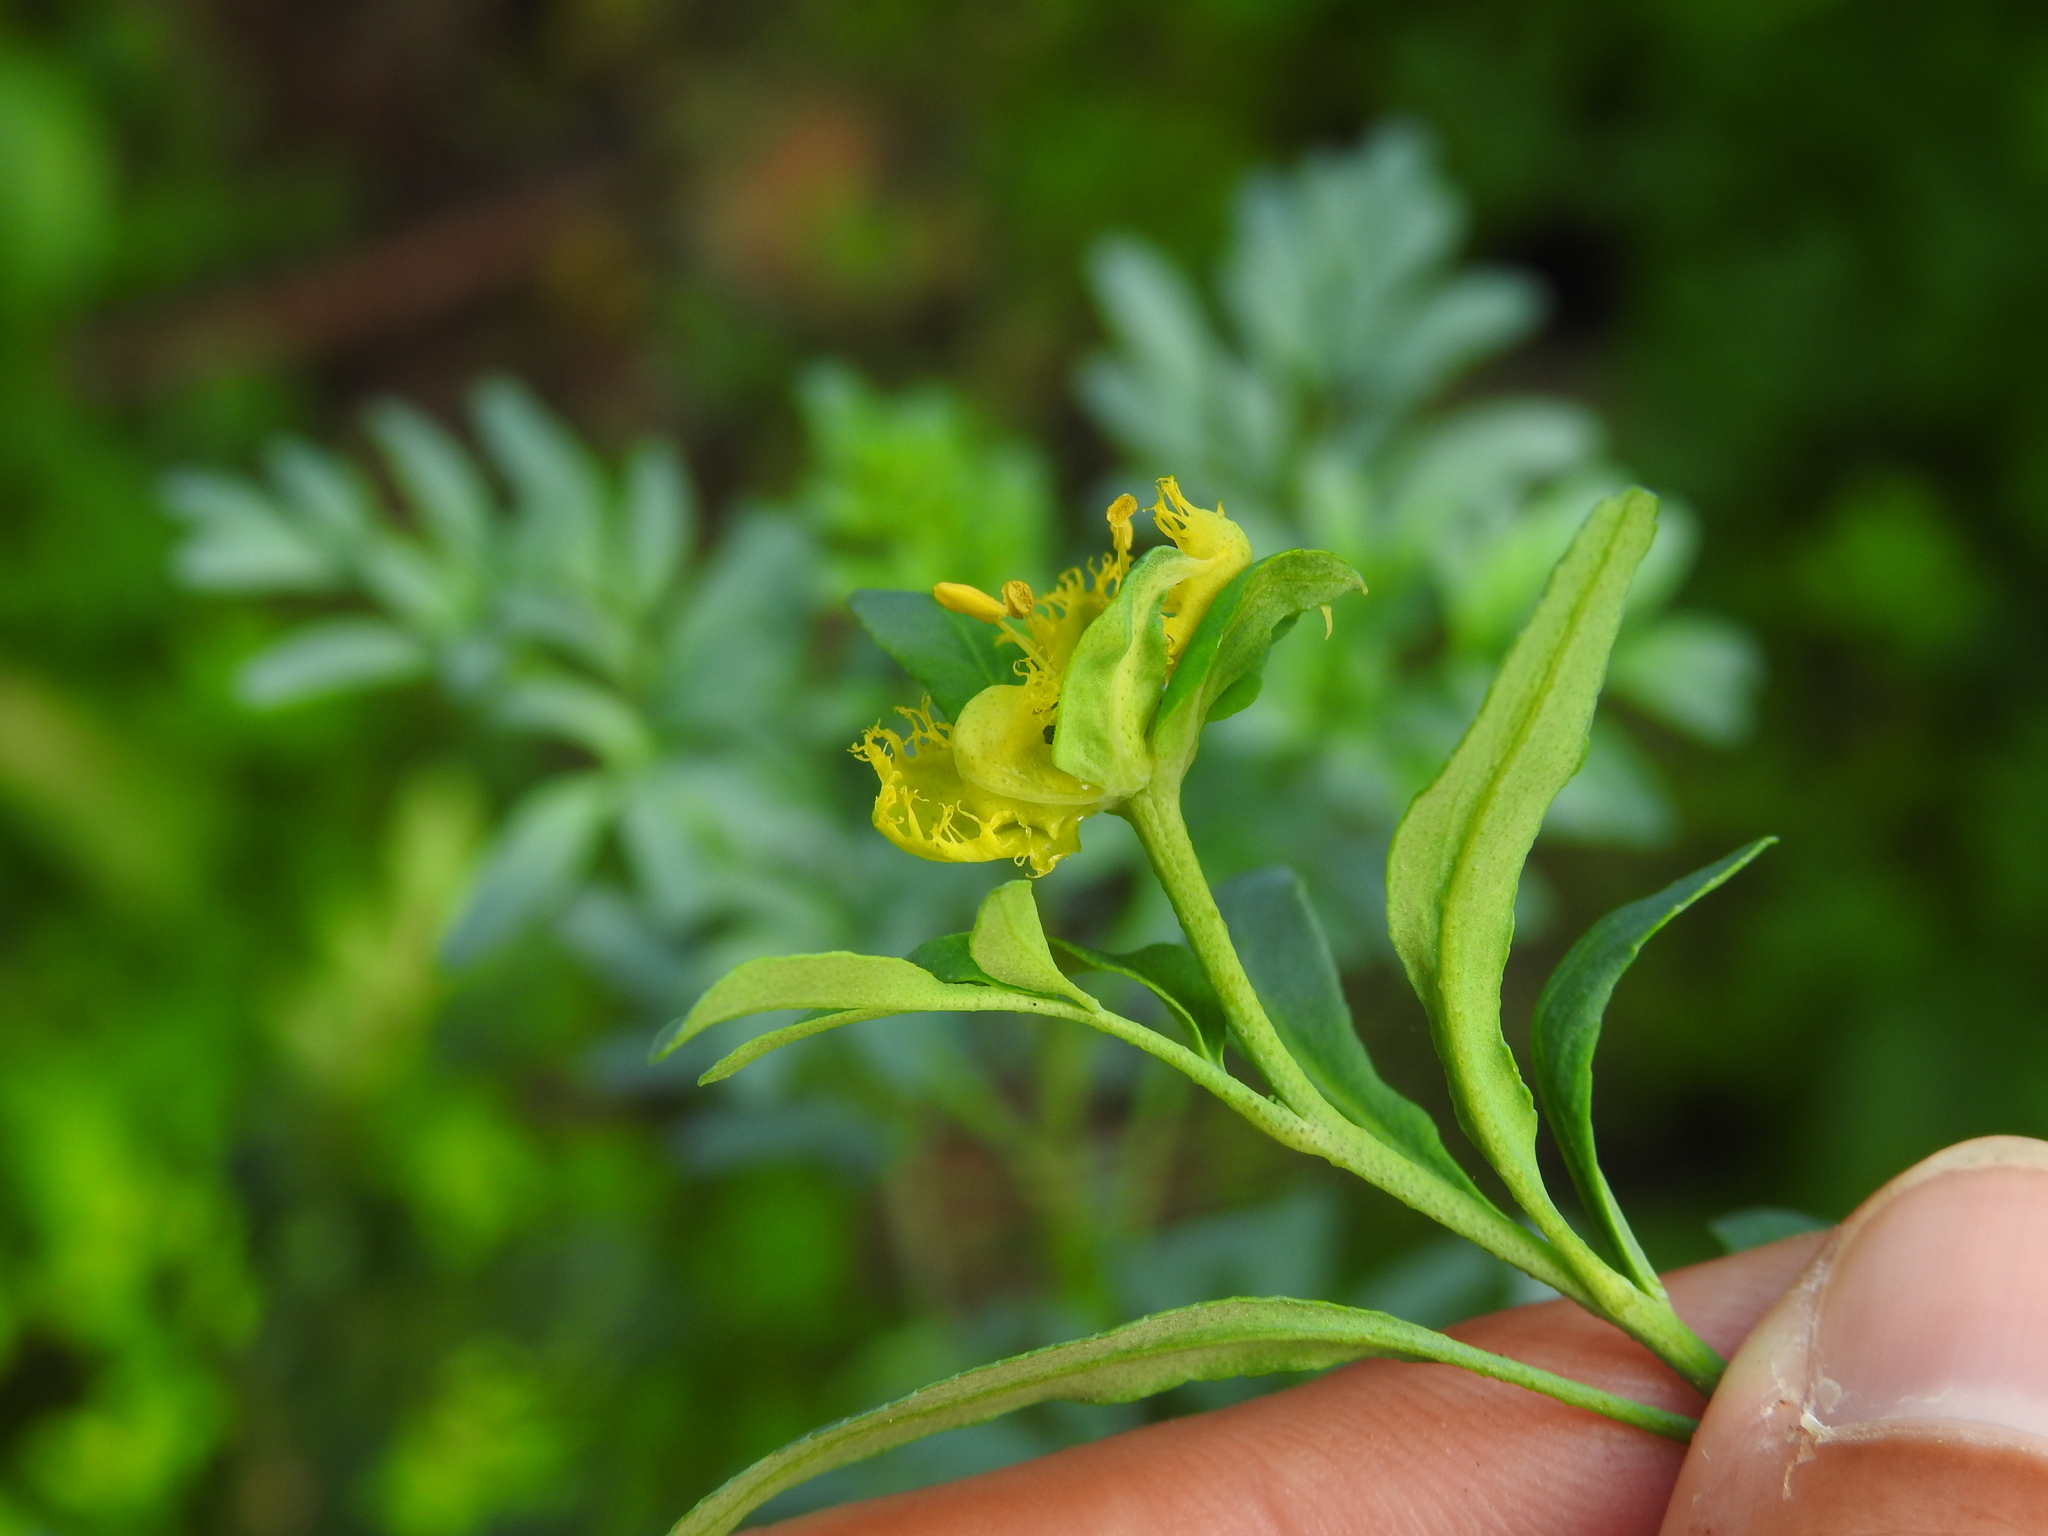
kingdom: Plantae
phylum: Tracheophyta
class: Magnoliopsida
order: Sapindales
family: Rutaceae
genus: Ruta
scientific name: Ruta chalepensis
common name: Fringed rue
